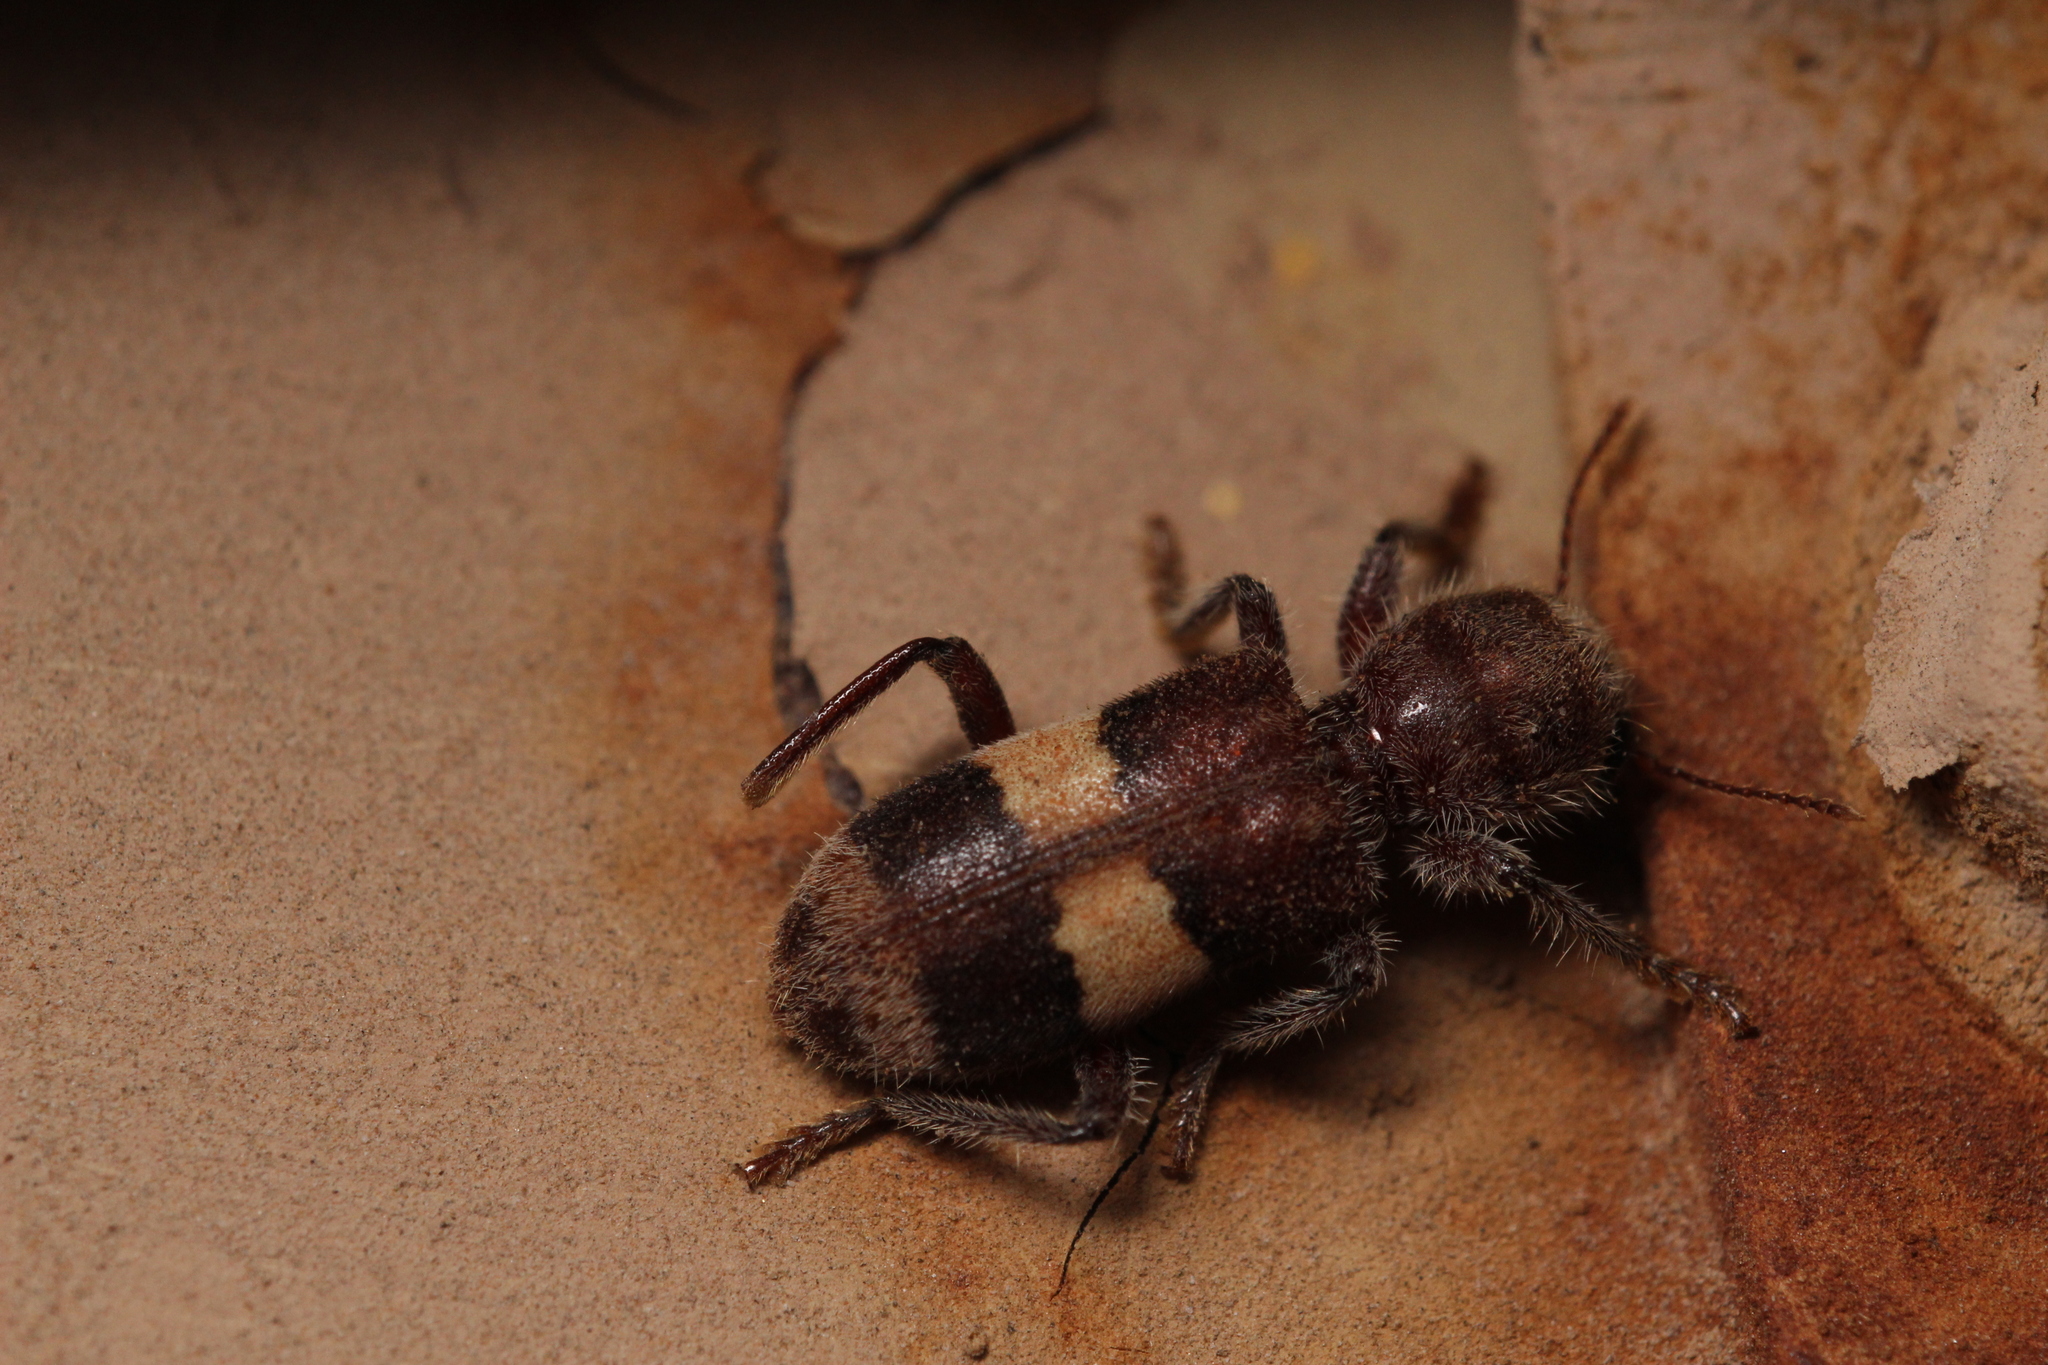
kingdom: Animalia
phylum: Arthropoda
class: Insecta
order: Coleoptera
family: Cleridae
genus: Enoclerus
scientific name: Enoclerus quadrisignatus
